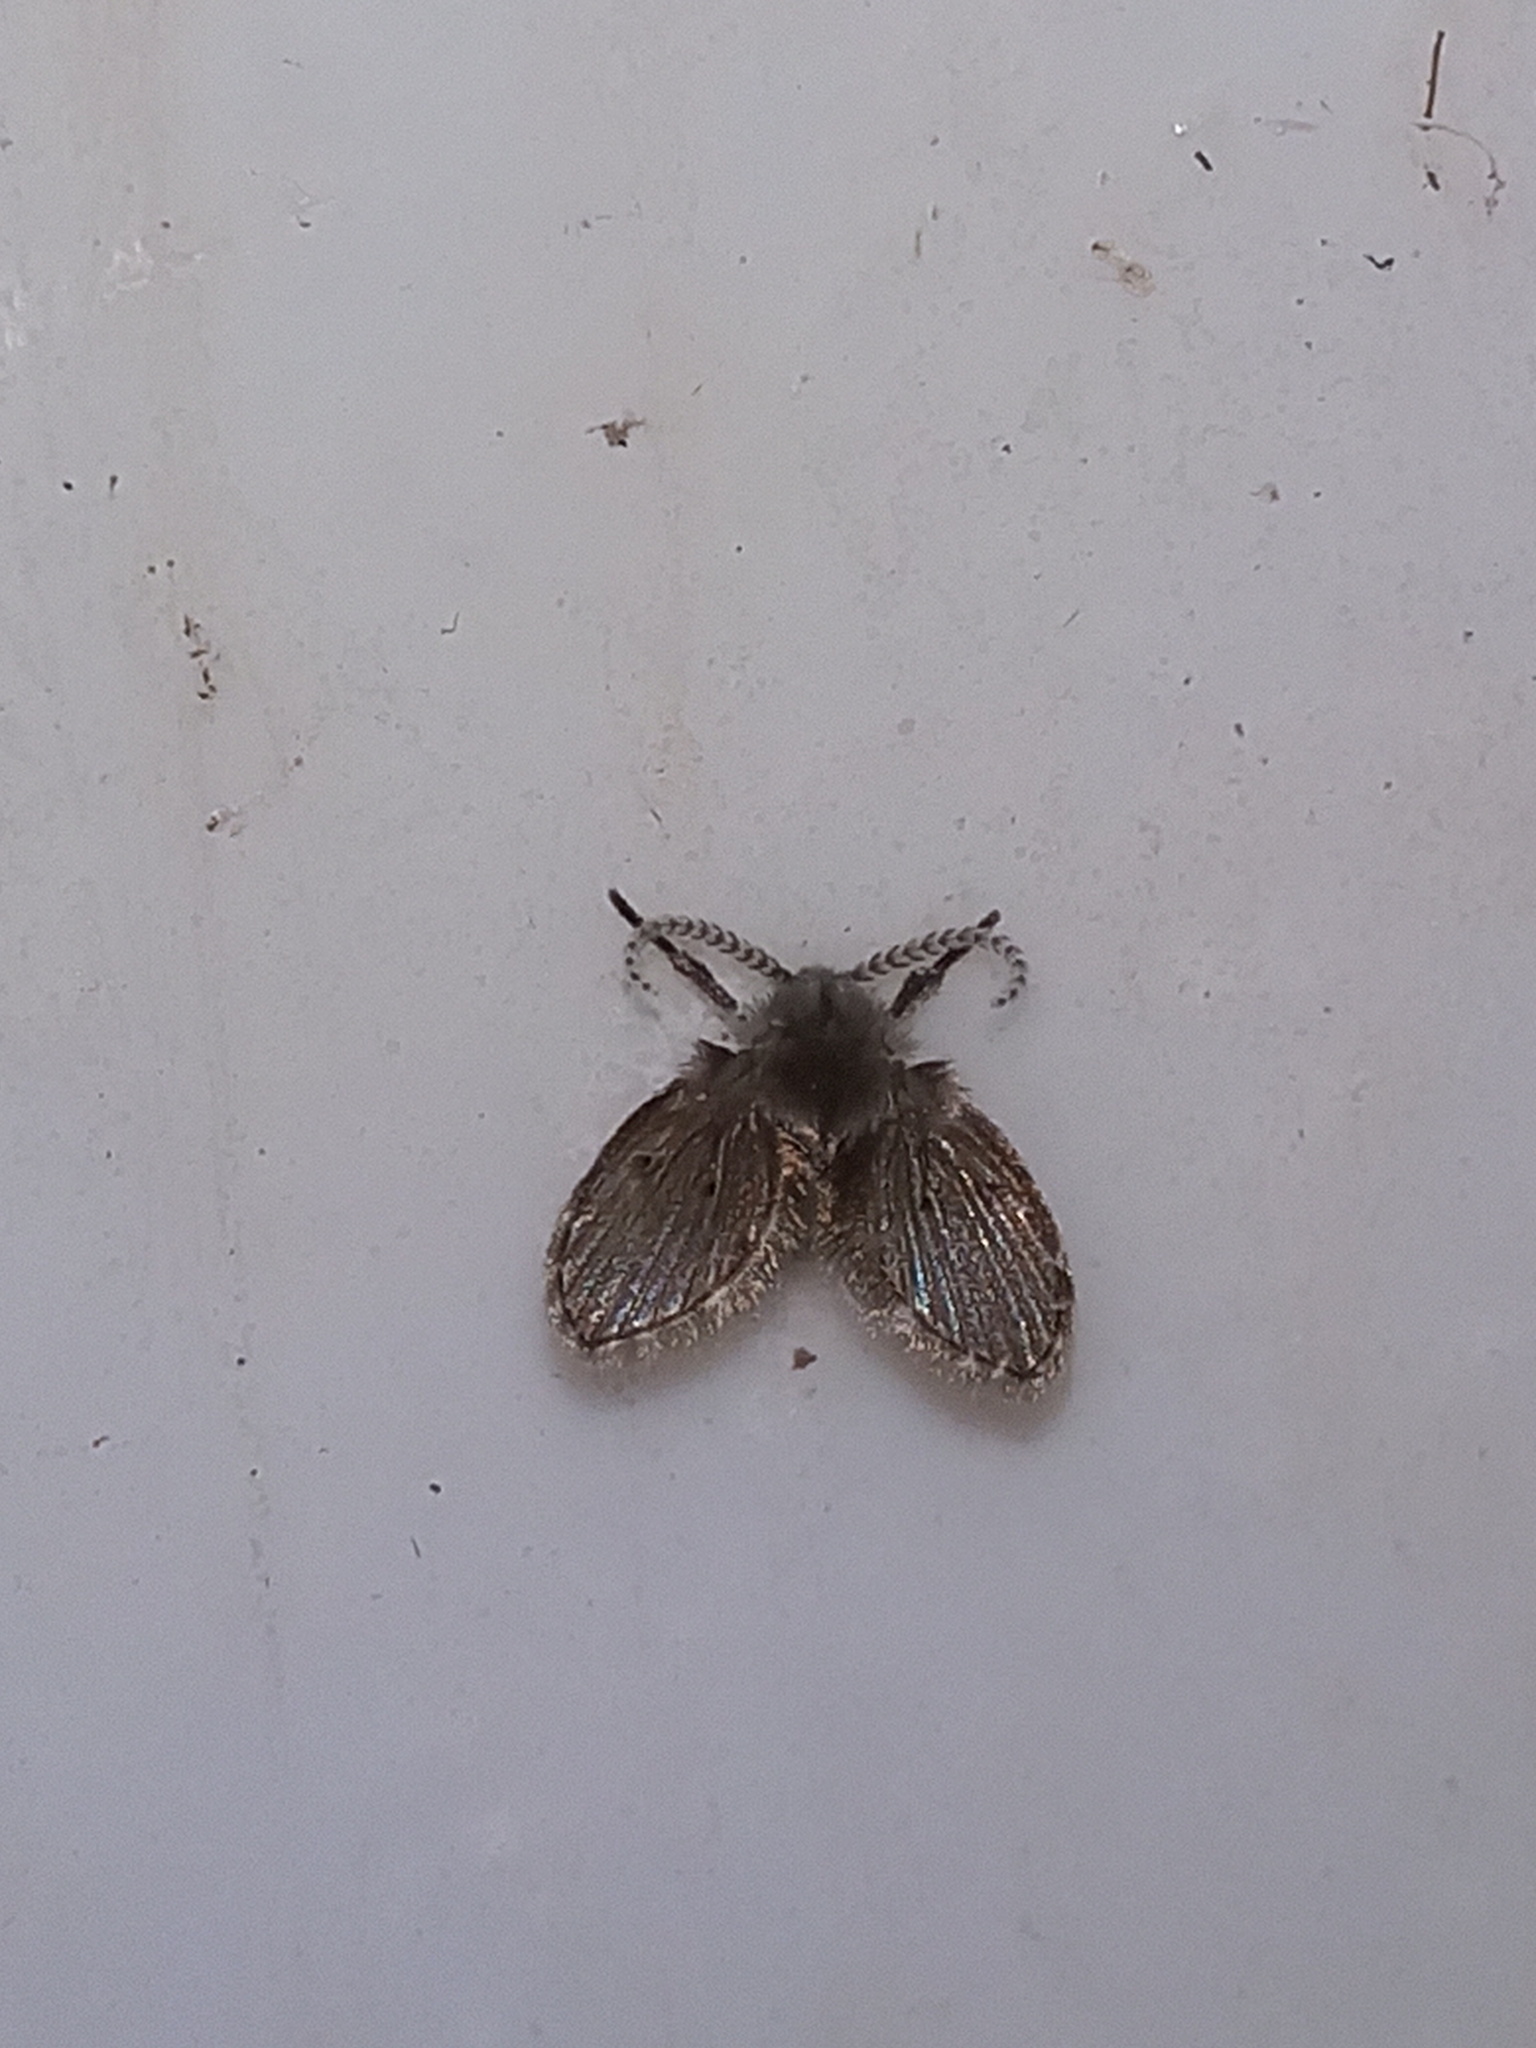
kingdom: Animalia
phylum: Arthropoda
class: Insecta
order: Diptera
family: Psychodidae
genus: Clogmia
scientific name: Clogmia albipunctatus
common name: White-spotted moth fly
